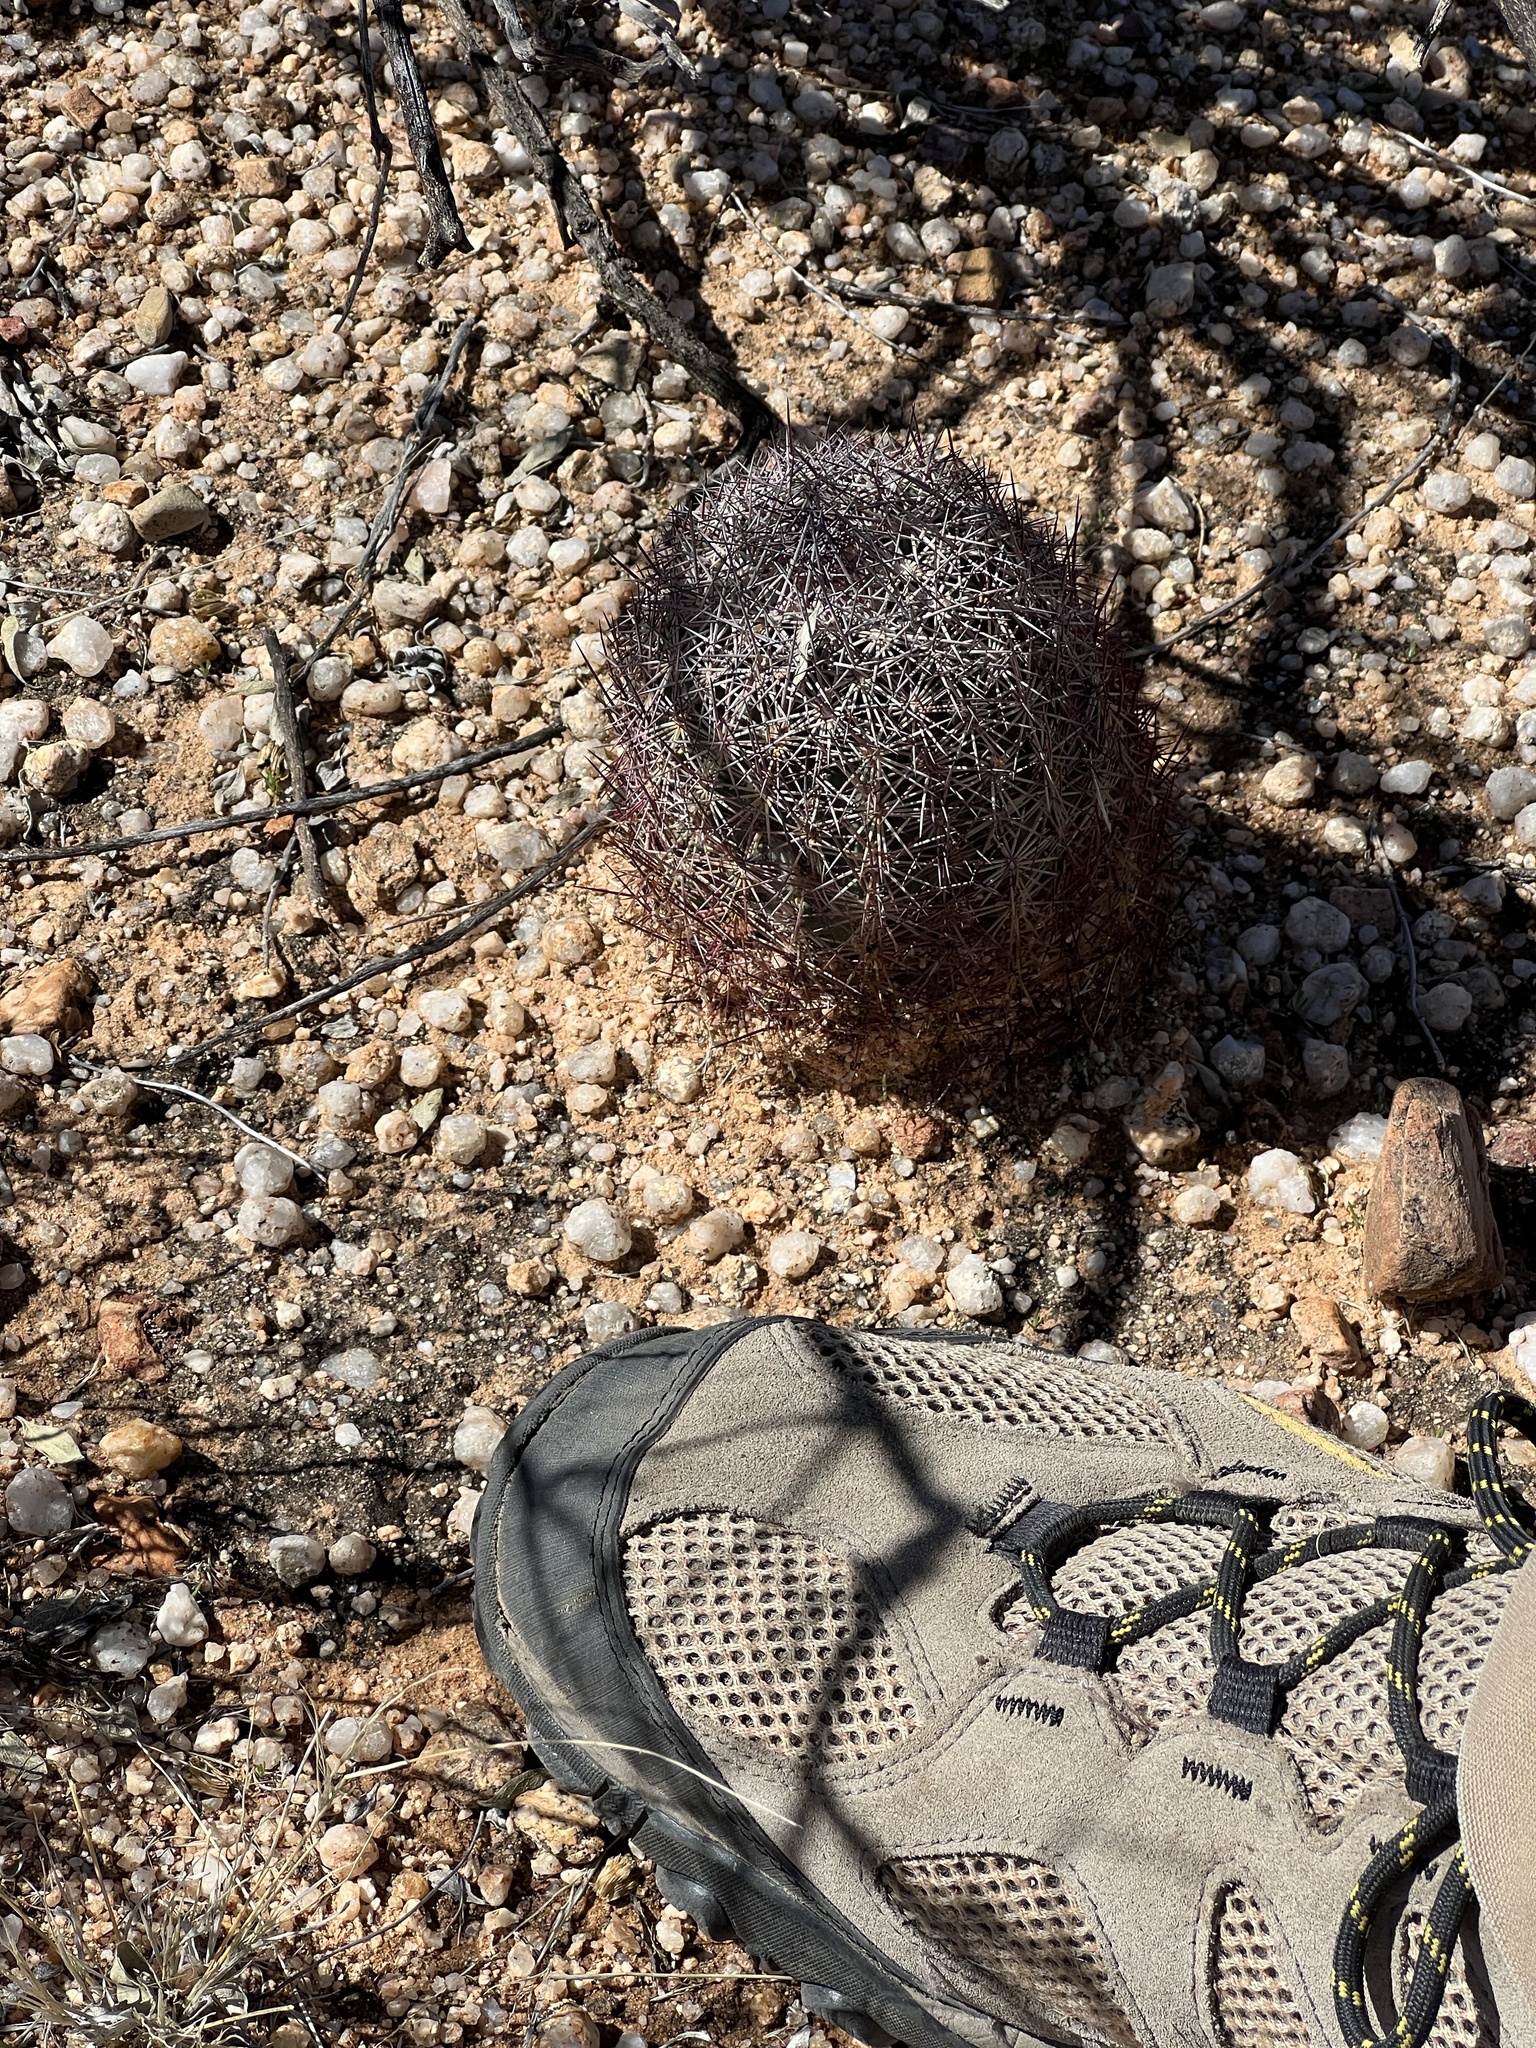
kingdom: Plantae
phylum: Tracheophyta
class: Magnoliopsida
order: Caryophyllales
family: Cactaceae
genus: Sclerocactus
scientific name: Sclerocactus johnsonii
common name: Eight-spine fishhook cactus
